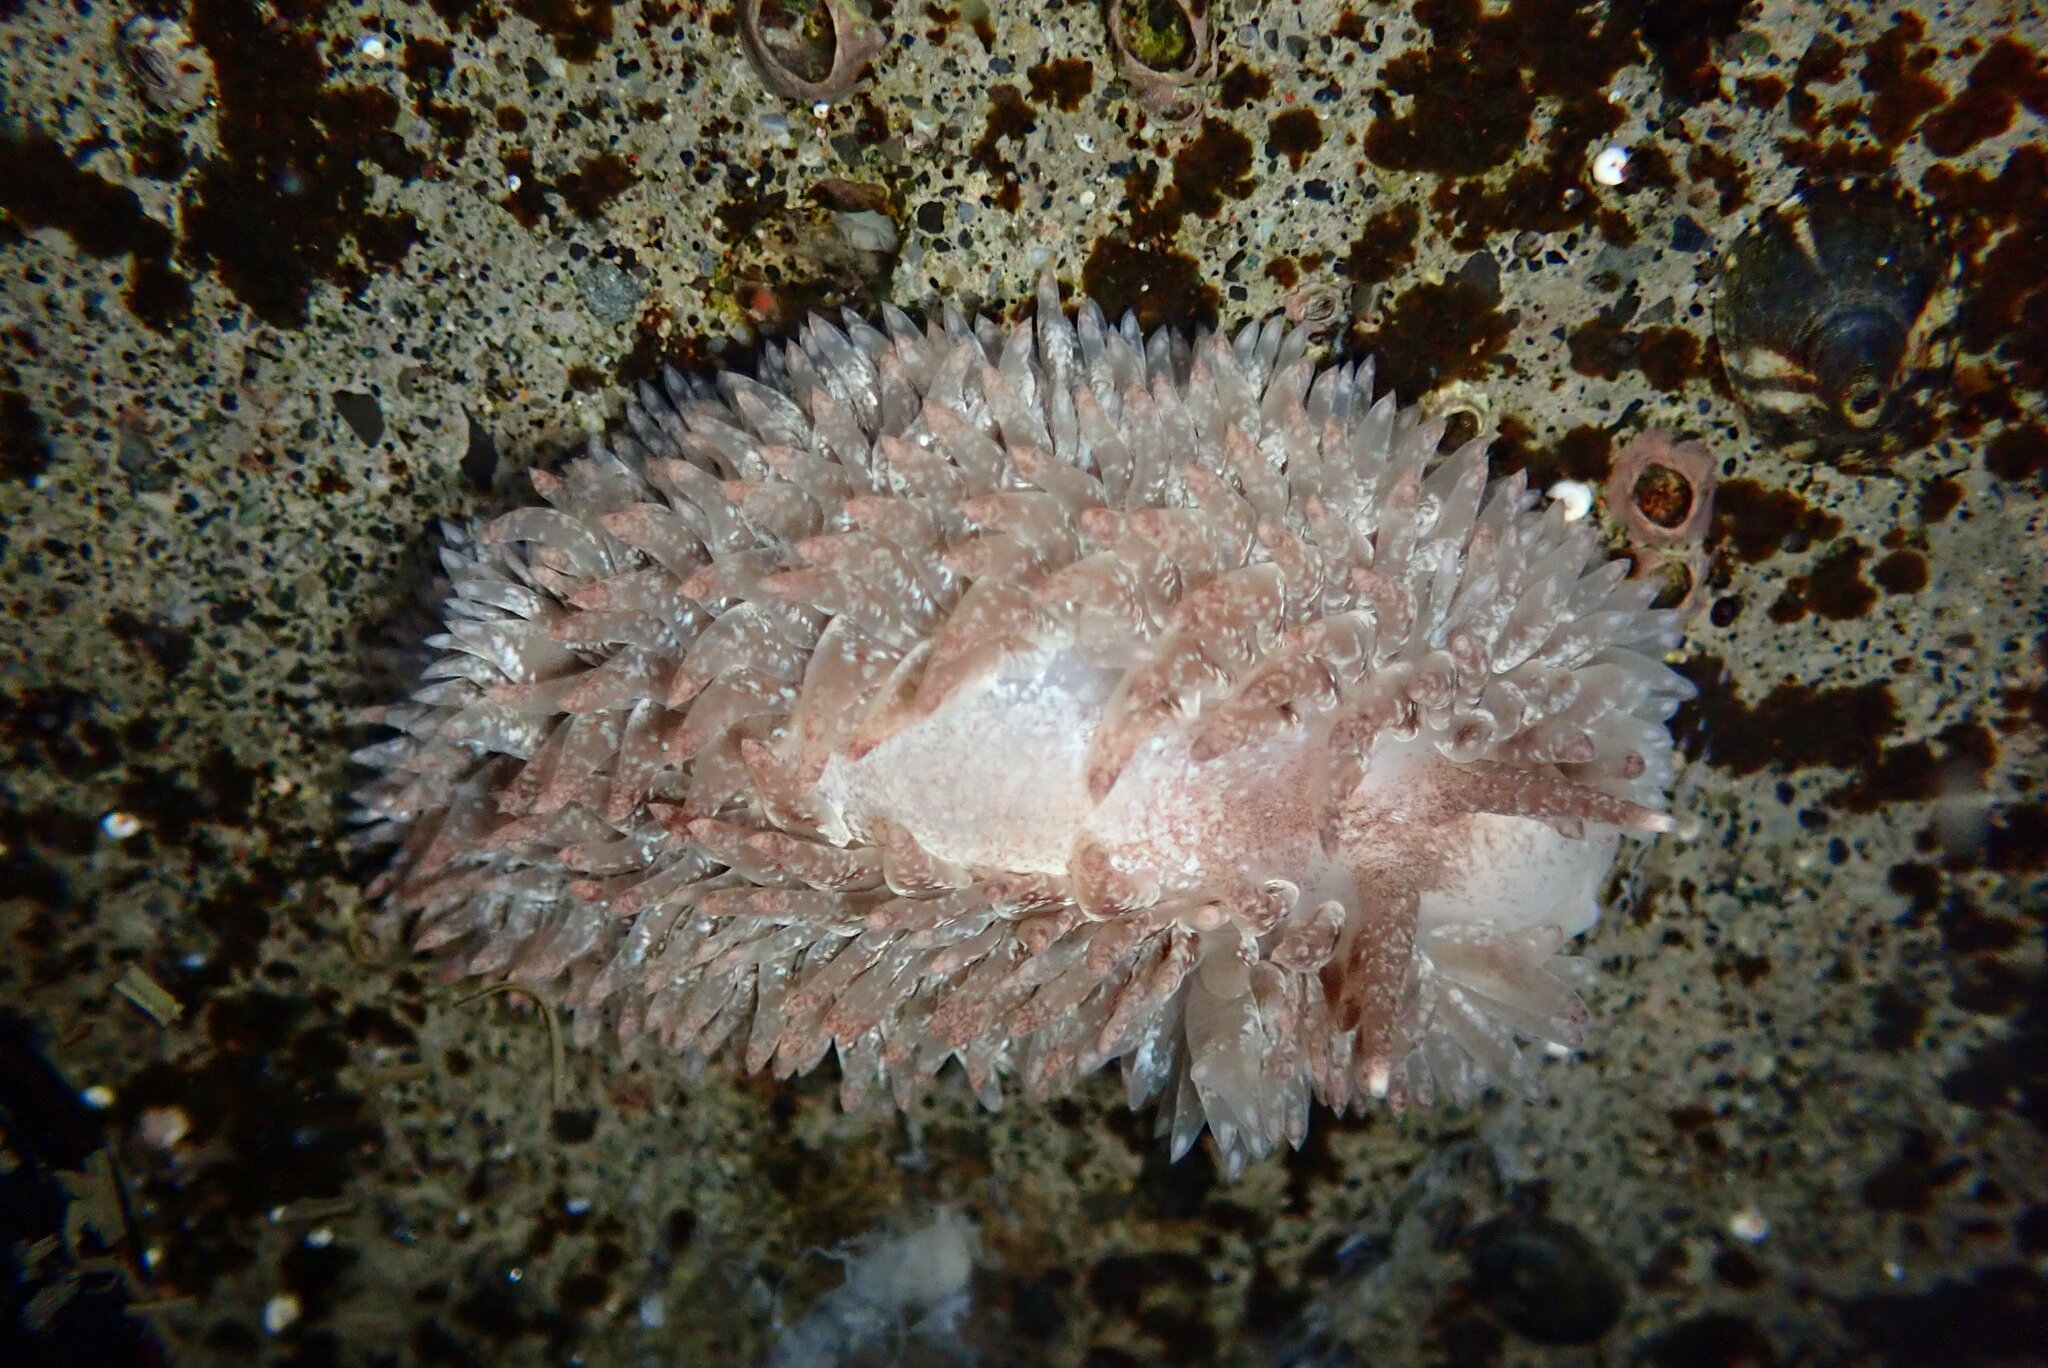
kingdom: Animalia
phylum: Mollusca
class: Gastropoda
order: Nudibranchia
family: Aeolidiidae
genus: Aeolidia
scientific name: Aeolidia papillosa
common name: Common grey sea slug
